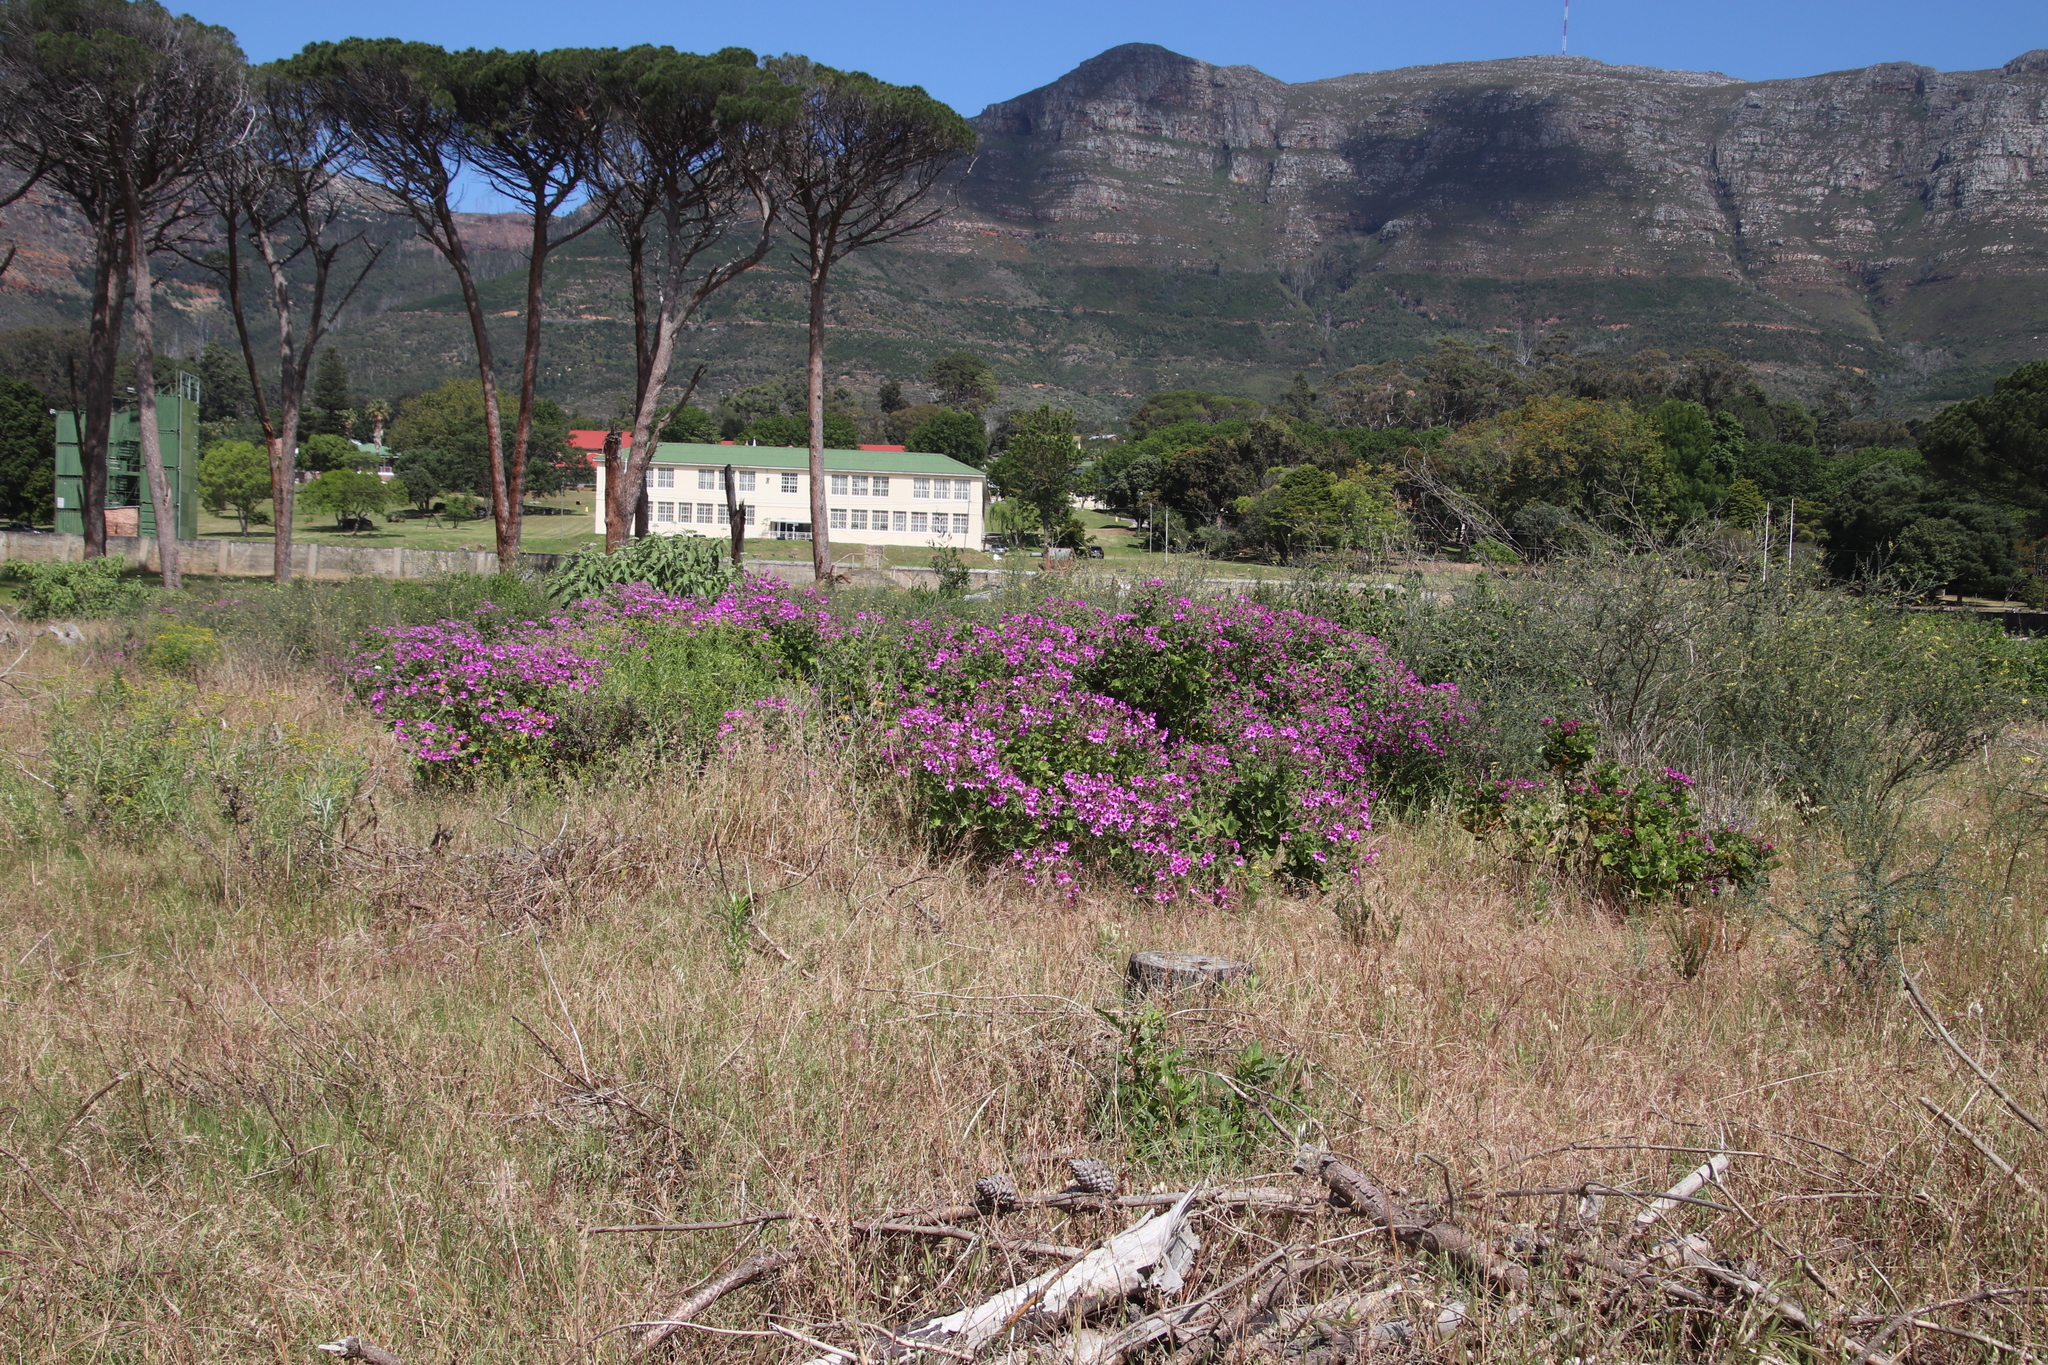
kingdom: Plantae
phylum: Tracheophyta
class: Magnoliopsida
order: Geraniales
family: Geraniaceae
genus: Pelargonium
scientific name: Pelargonium cucullatum
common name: Tree pelargonium
